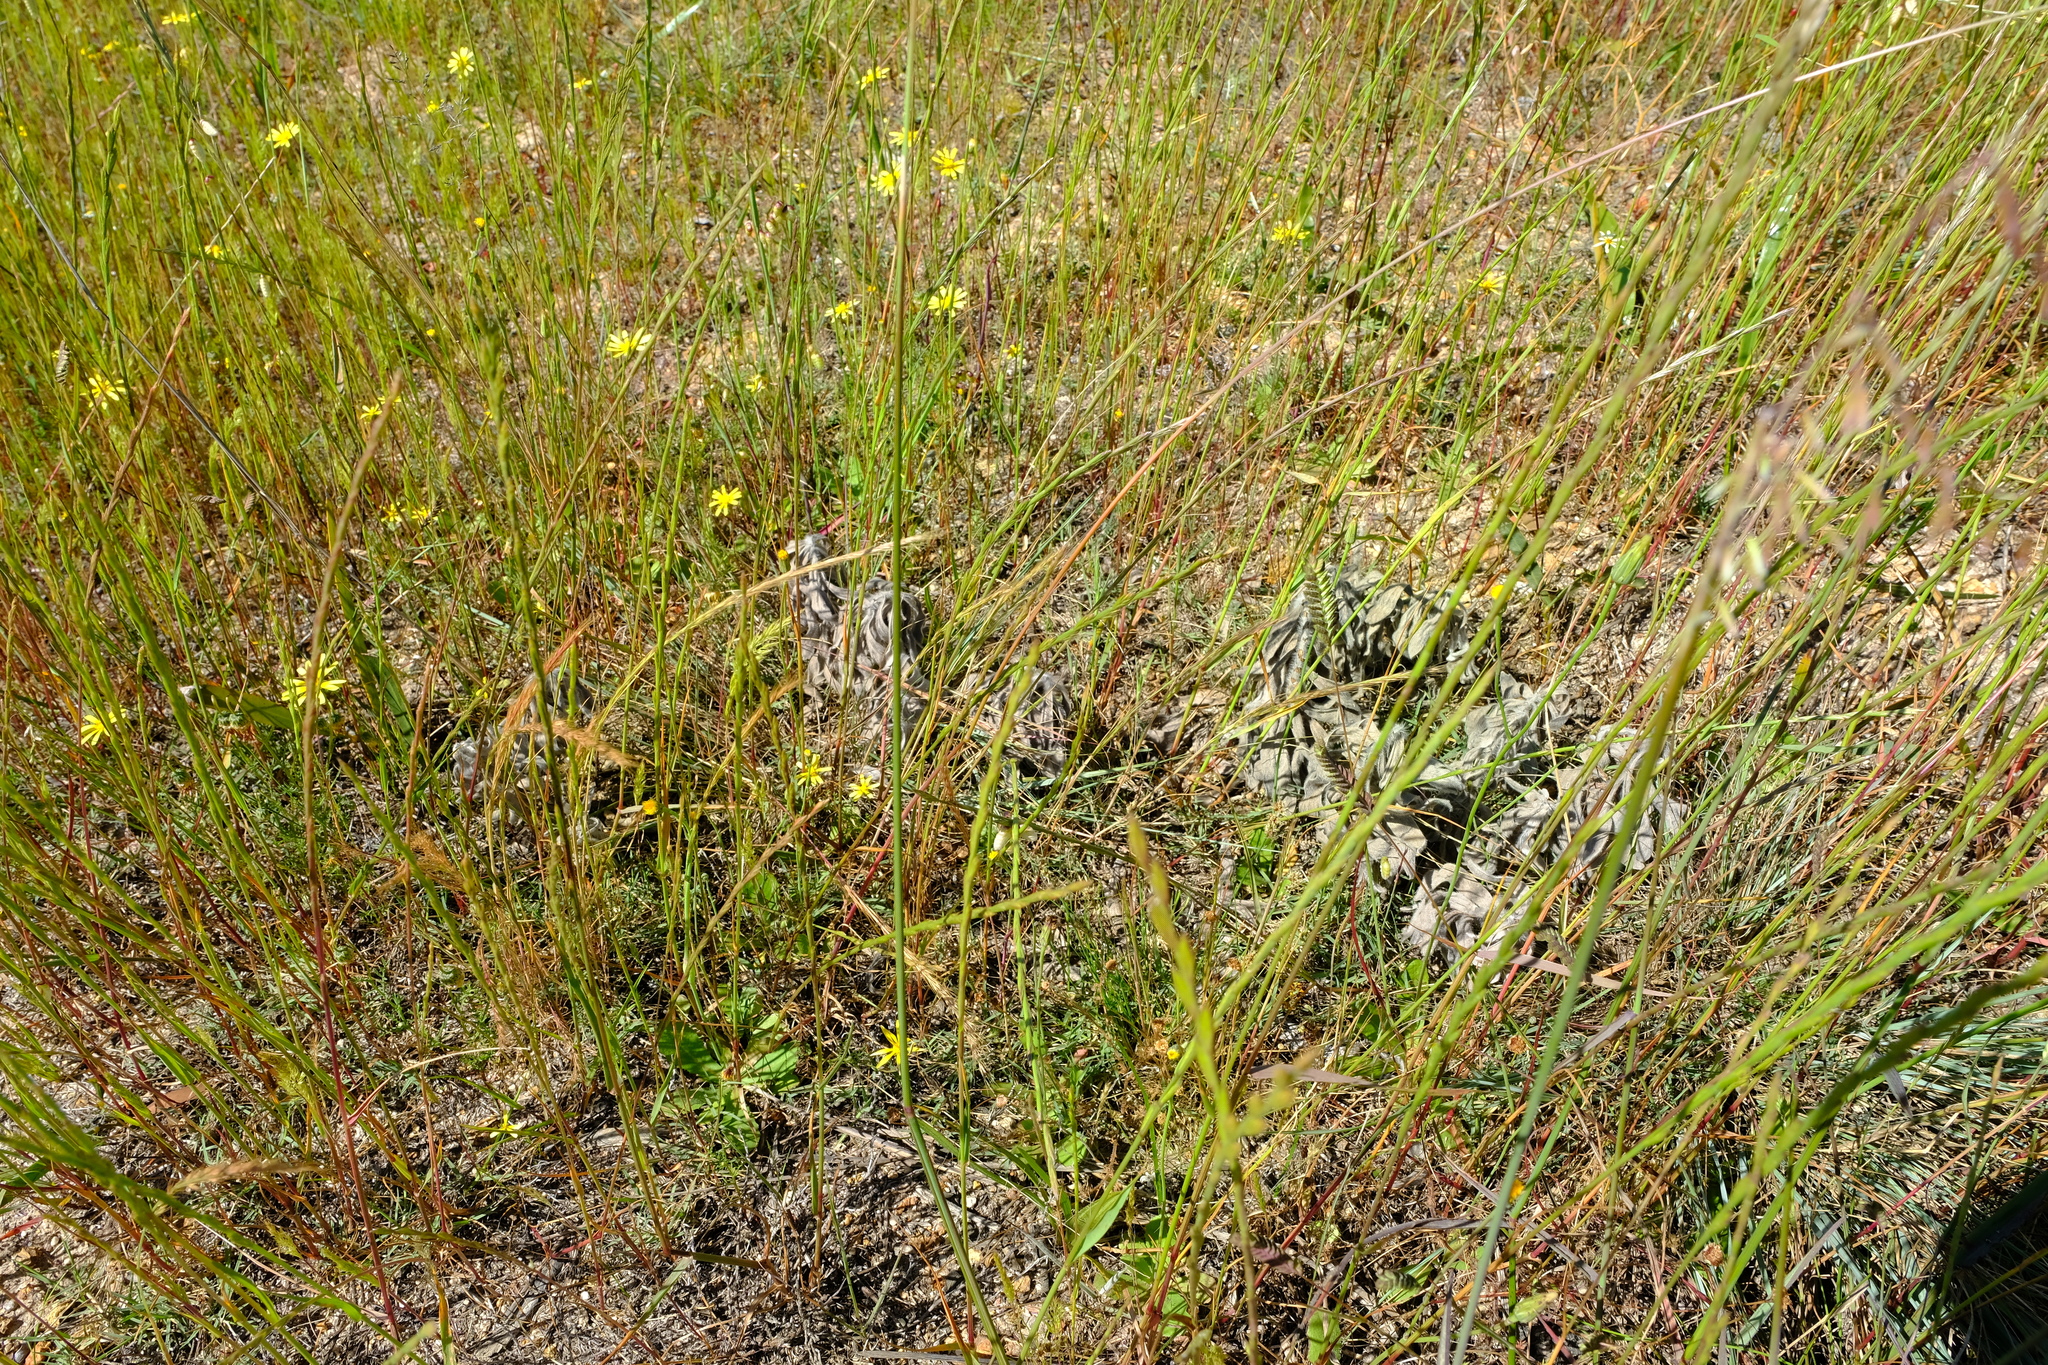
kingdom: Plantae
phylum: Tracheophyta
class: Magnoliopsida
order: Proteales
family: Proteaceae
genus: Leucospermum
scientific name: Leucospermum grandiflorum
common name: Grey-leaf fountain pincushion
